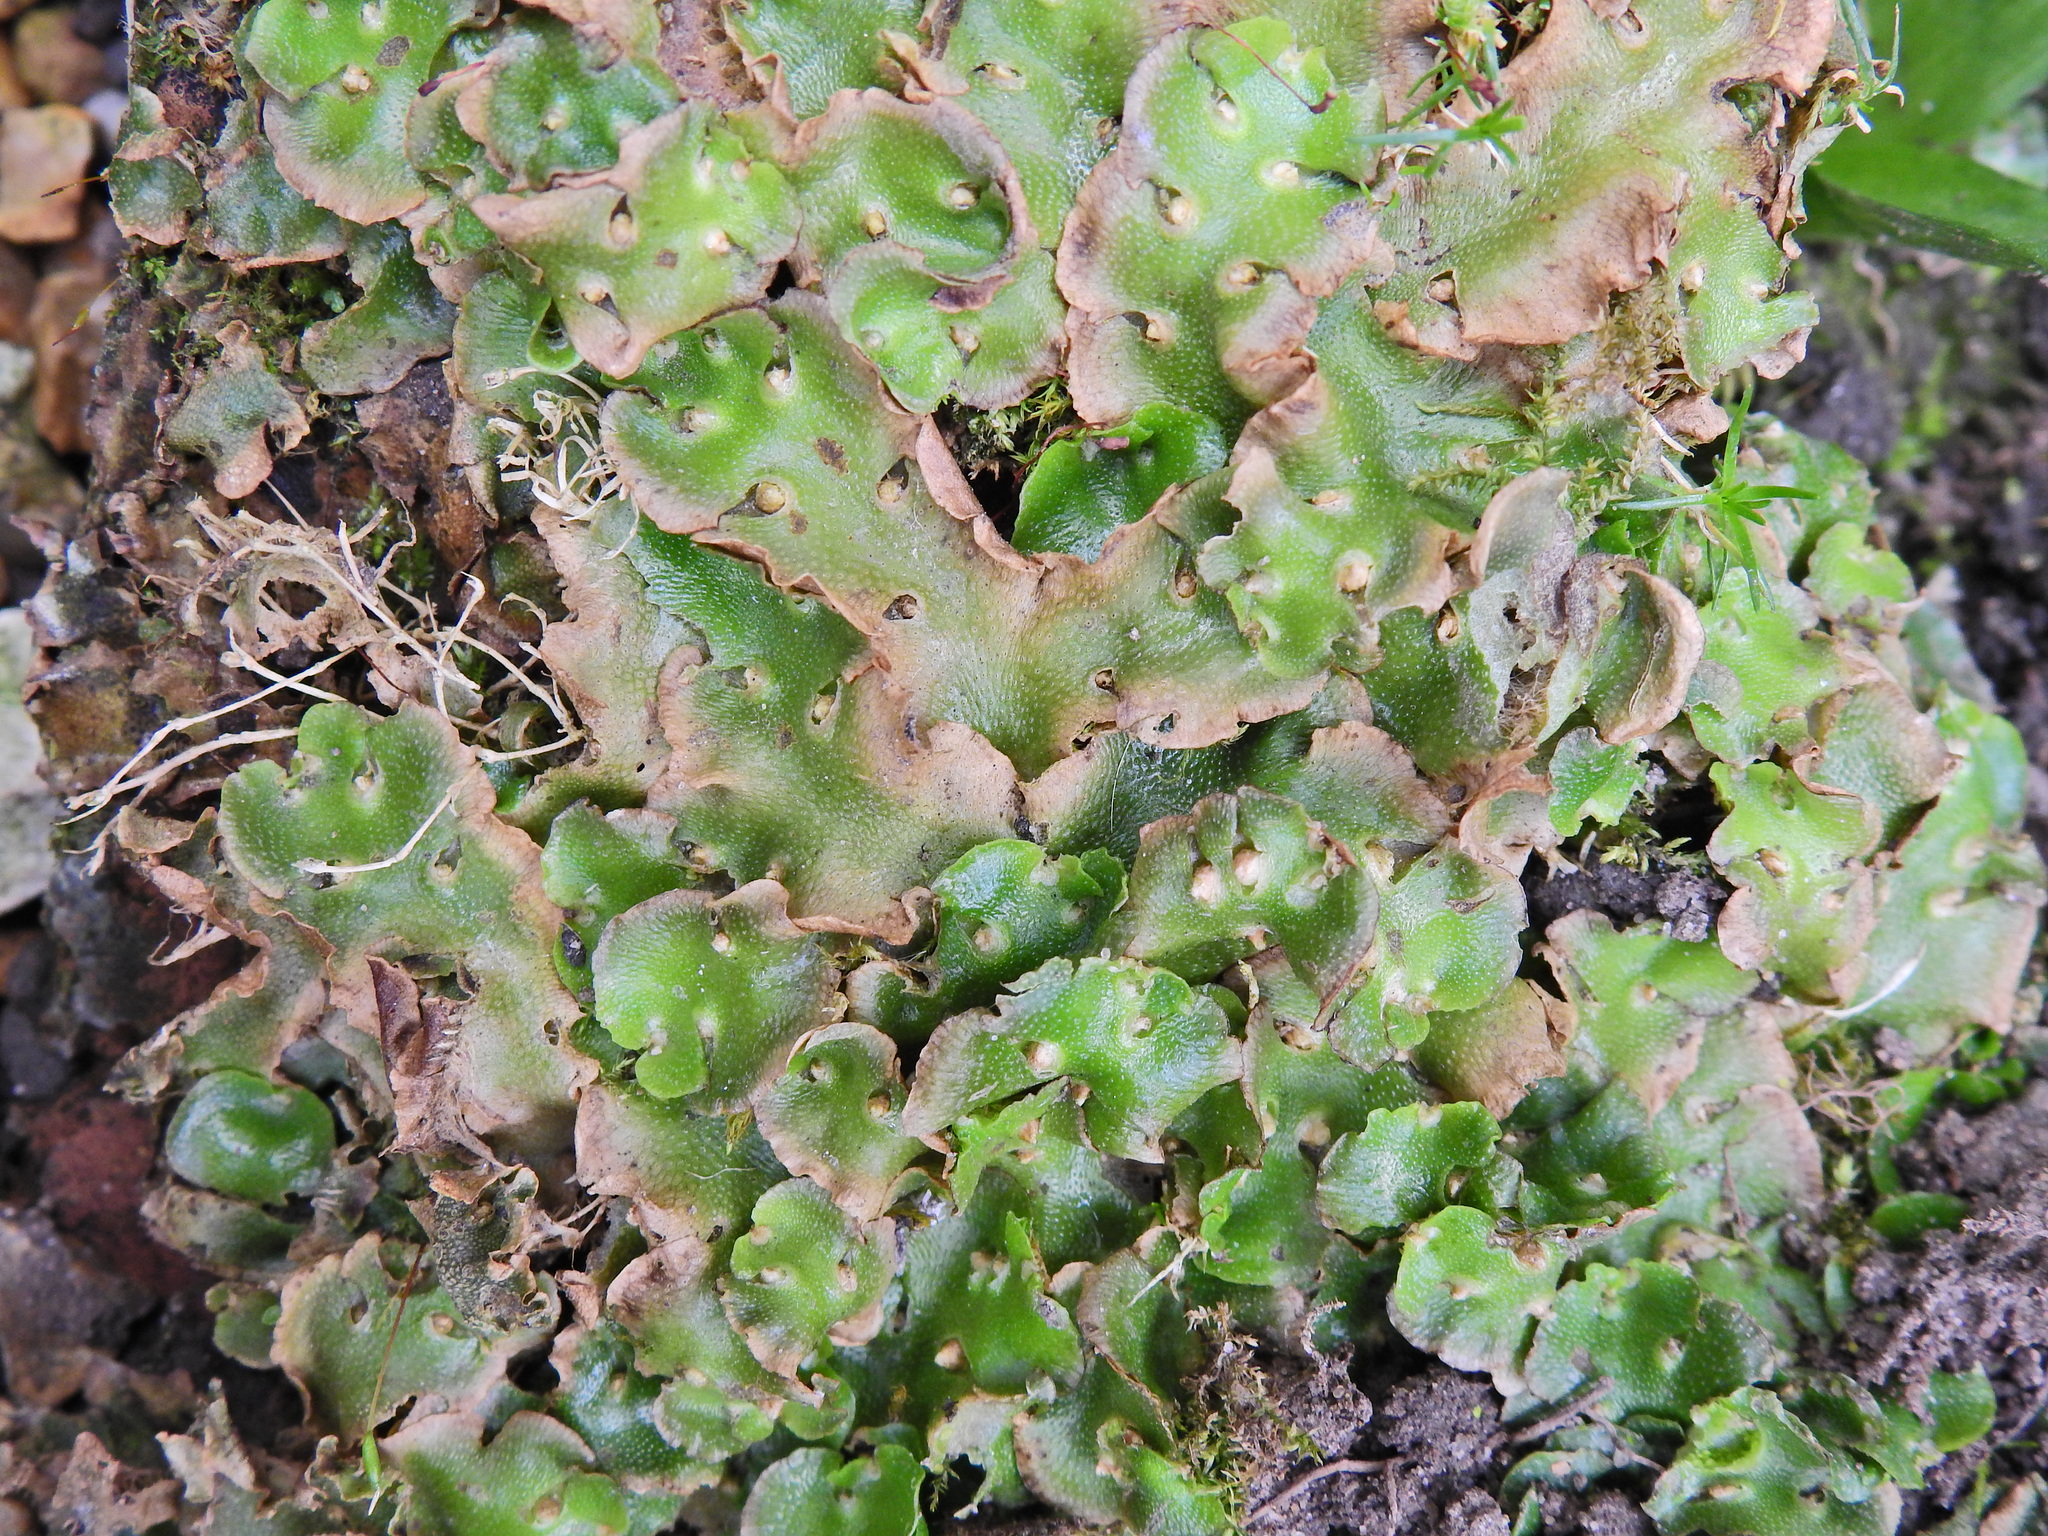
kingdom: Plantae
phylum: Marchantiophyta
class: Marchantiopsida
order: Lunulariales
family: Lunulariaceae
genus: Lunularia
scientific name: Lunularia cruciata
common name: Crescent-cup liverwort
